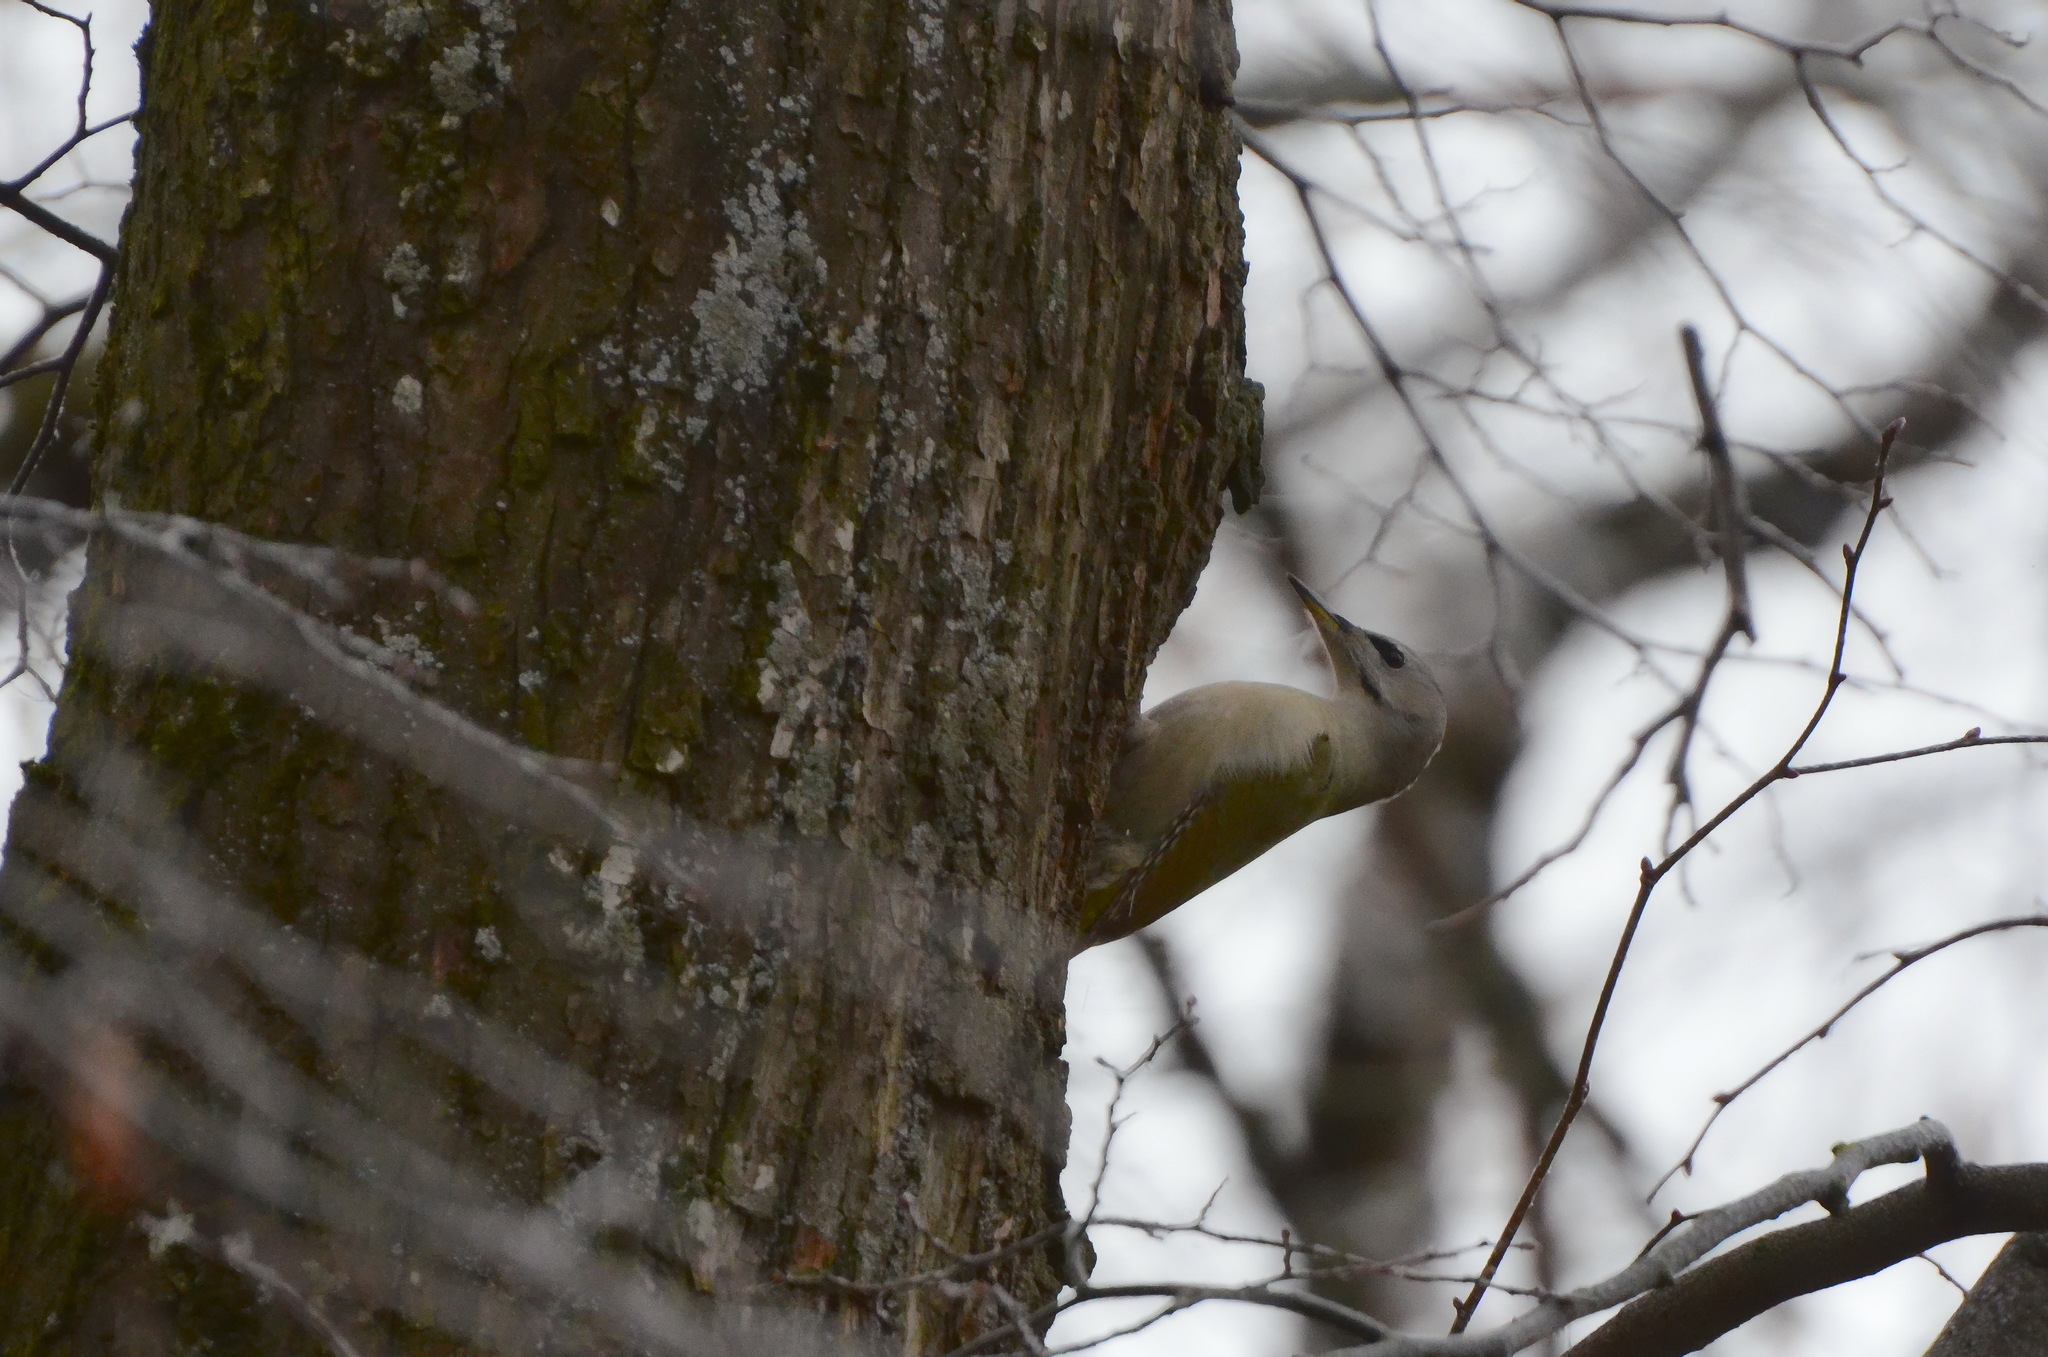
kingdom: Animalia
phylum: Chordata
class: Aves
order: Piciformes
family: Picidae
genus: Picus
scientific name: Picus canus
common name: Grey-headed woodpecker
